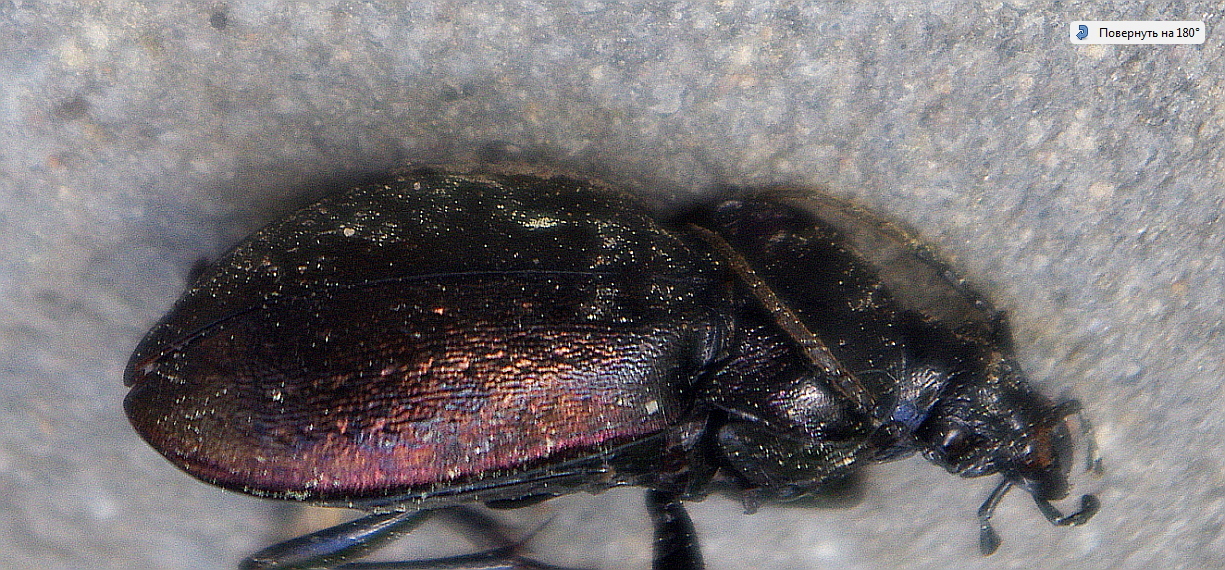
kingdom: Animalia
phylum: Arthropoda
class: Insecta
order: Coleoptera
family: Carabidae
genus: Carabus
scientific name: Carabus nemoralis
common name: European ground beetle
